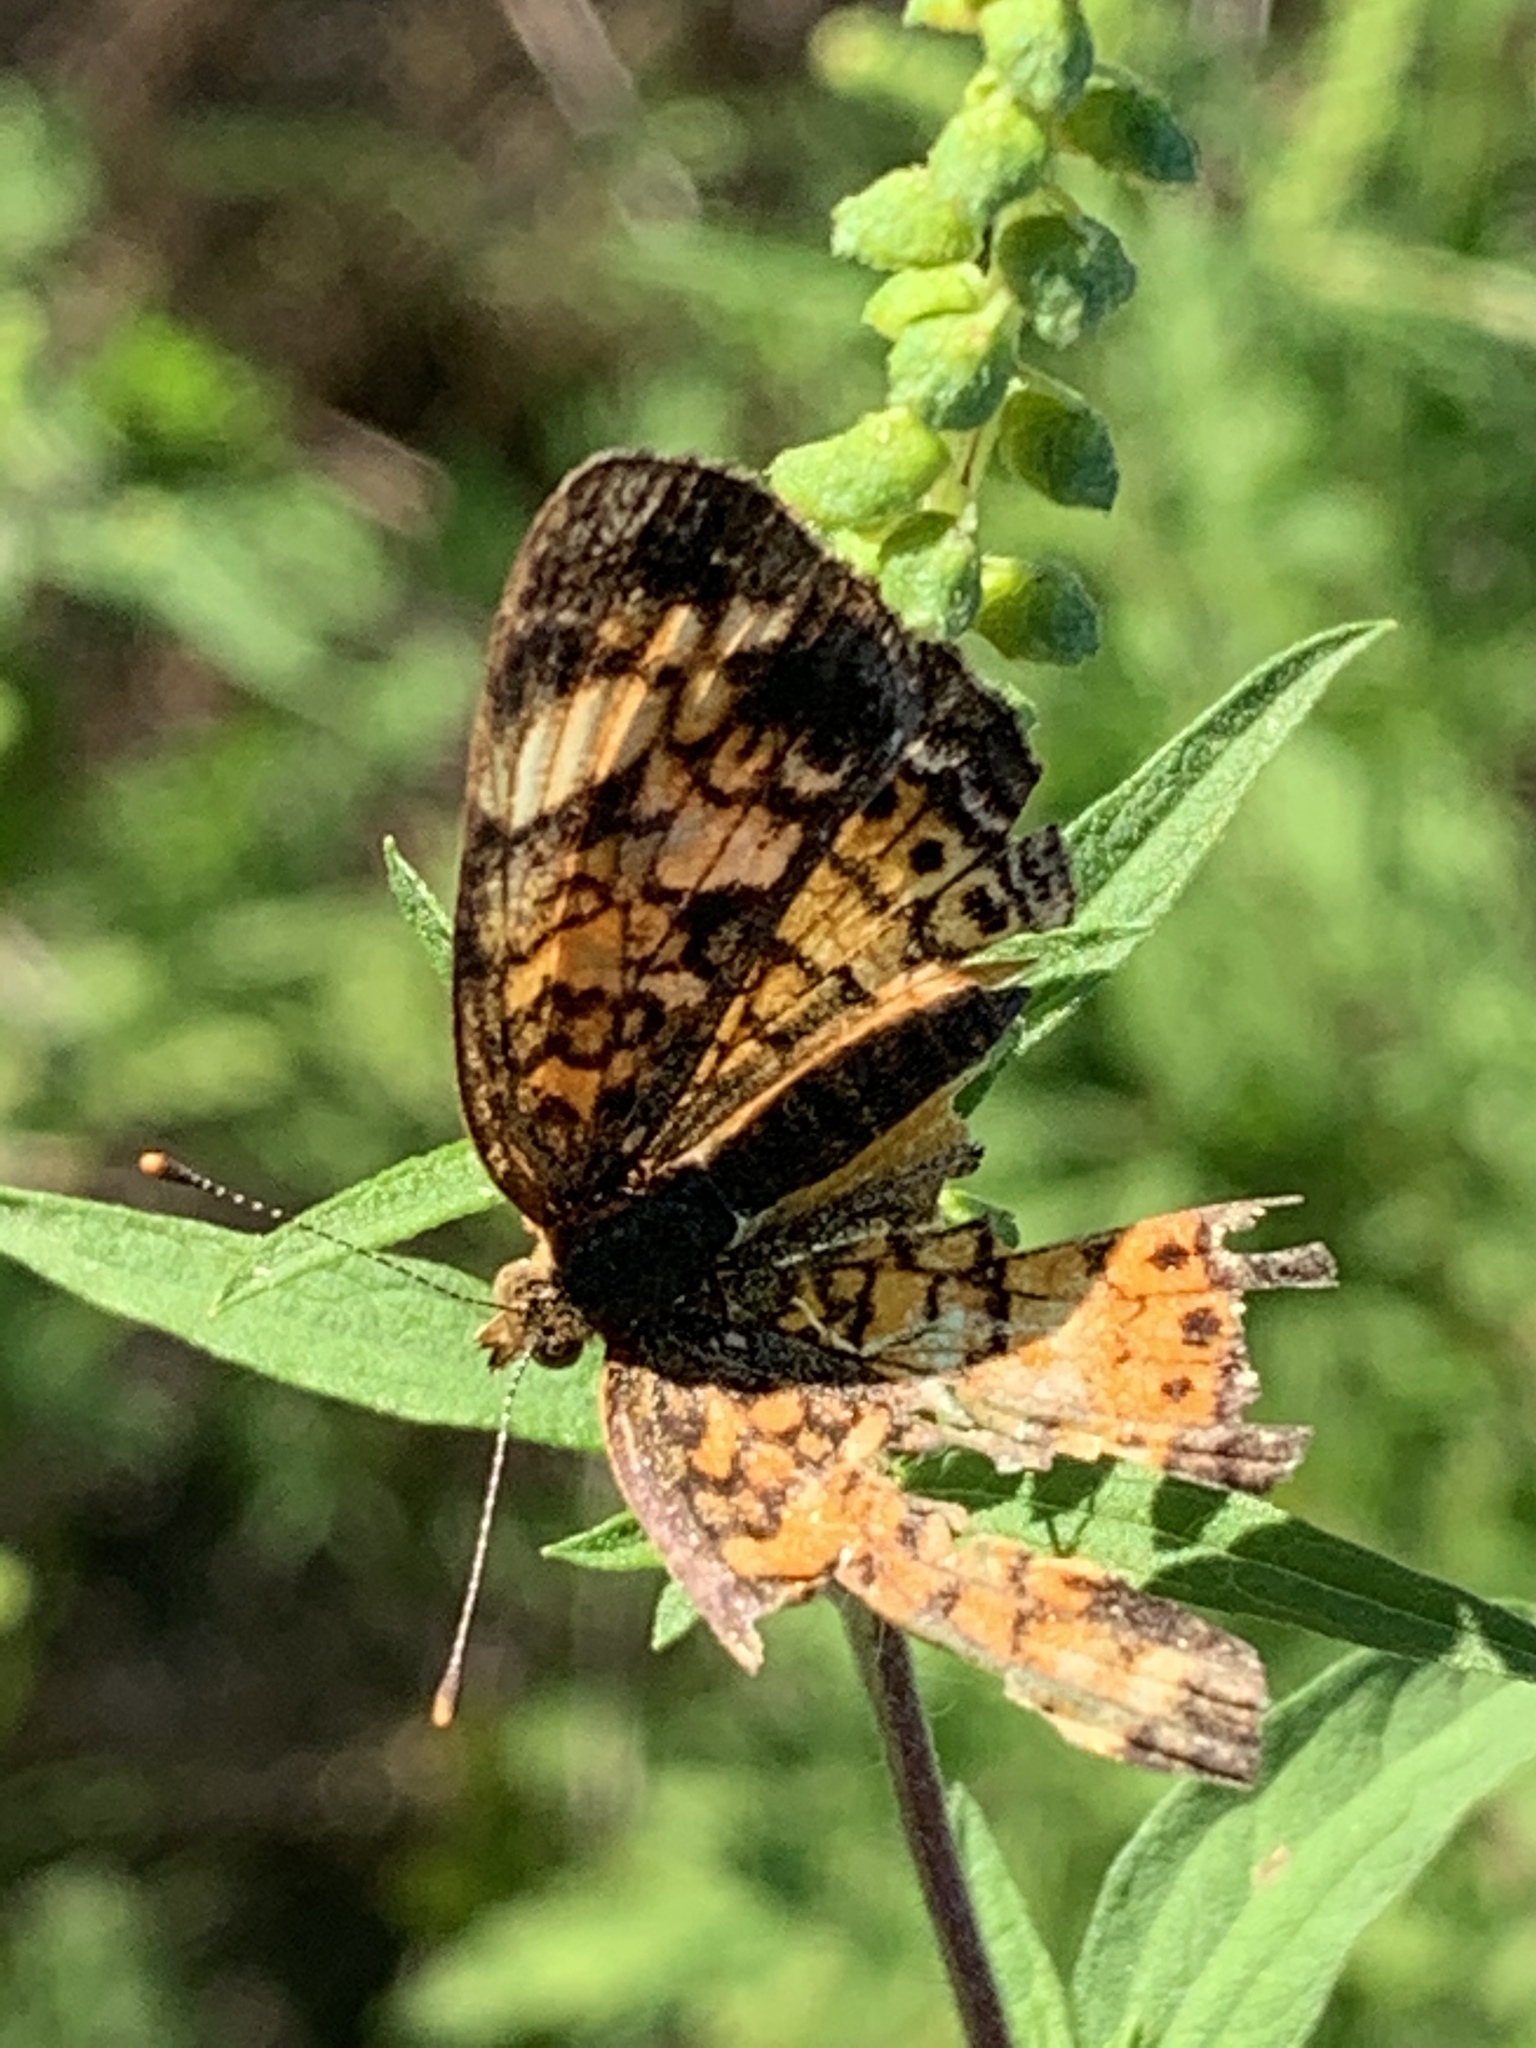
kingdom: Animalia
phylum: Arthropoda
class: Insecta
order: Lepidoptera
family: Nymphalidae
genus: Phyciodes
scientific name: Phyciodes tharos
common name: Pearl crescent
